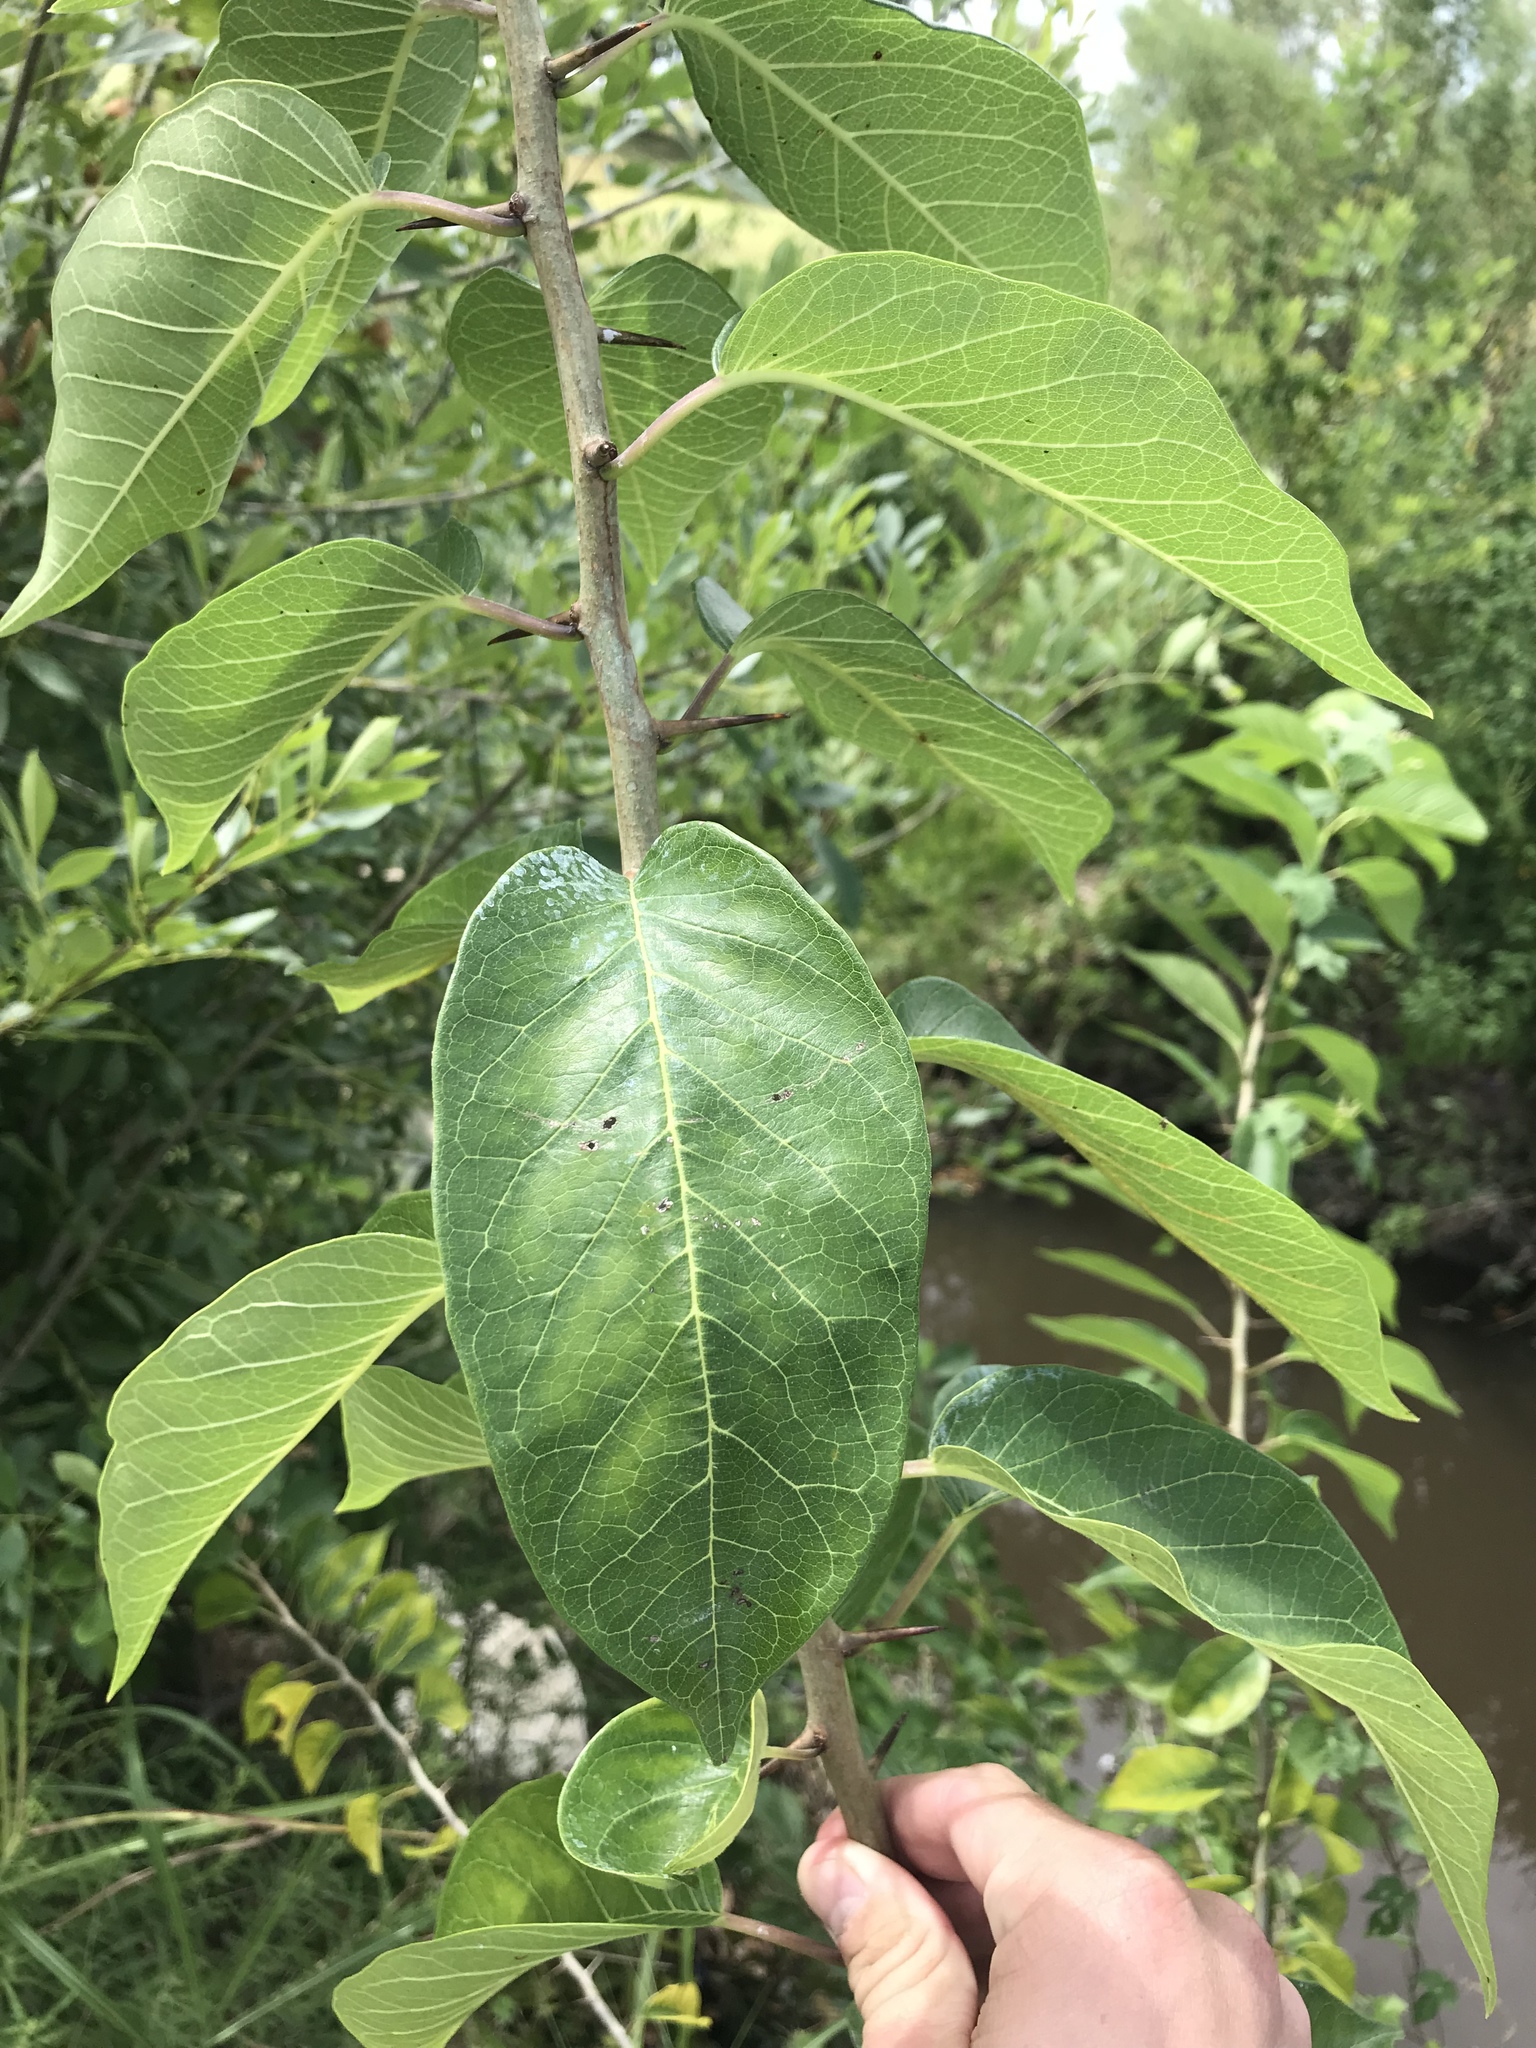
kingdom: Plantae
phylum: Tracheophyta
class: Magnoliopsida
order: Rosales
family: Moraceae
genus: Maclura
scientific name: Maclura pomifera
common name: Osage-orange
